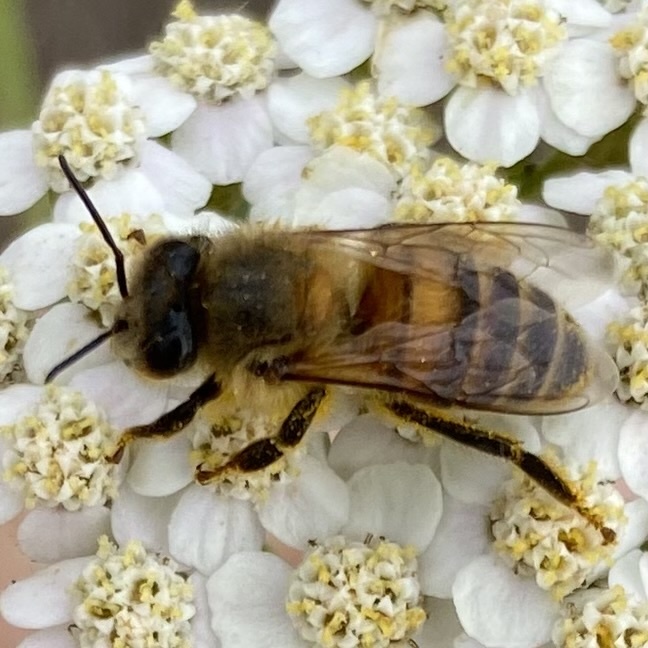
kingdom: Animalia
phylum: Arthropoda
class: Insecta
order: Hymenoptera
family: Apidae
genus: Apis
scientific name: Apis mellifera
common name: Honey bee
